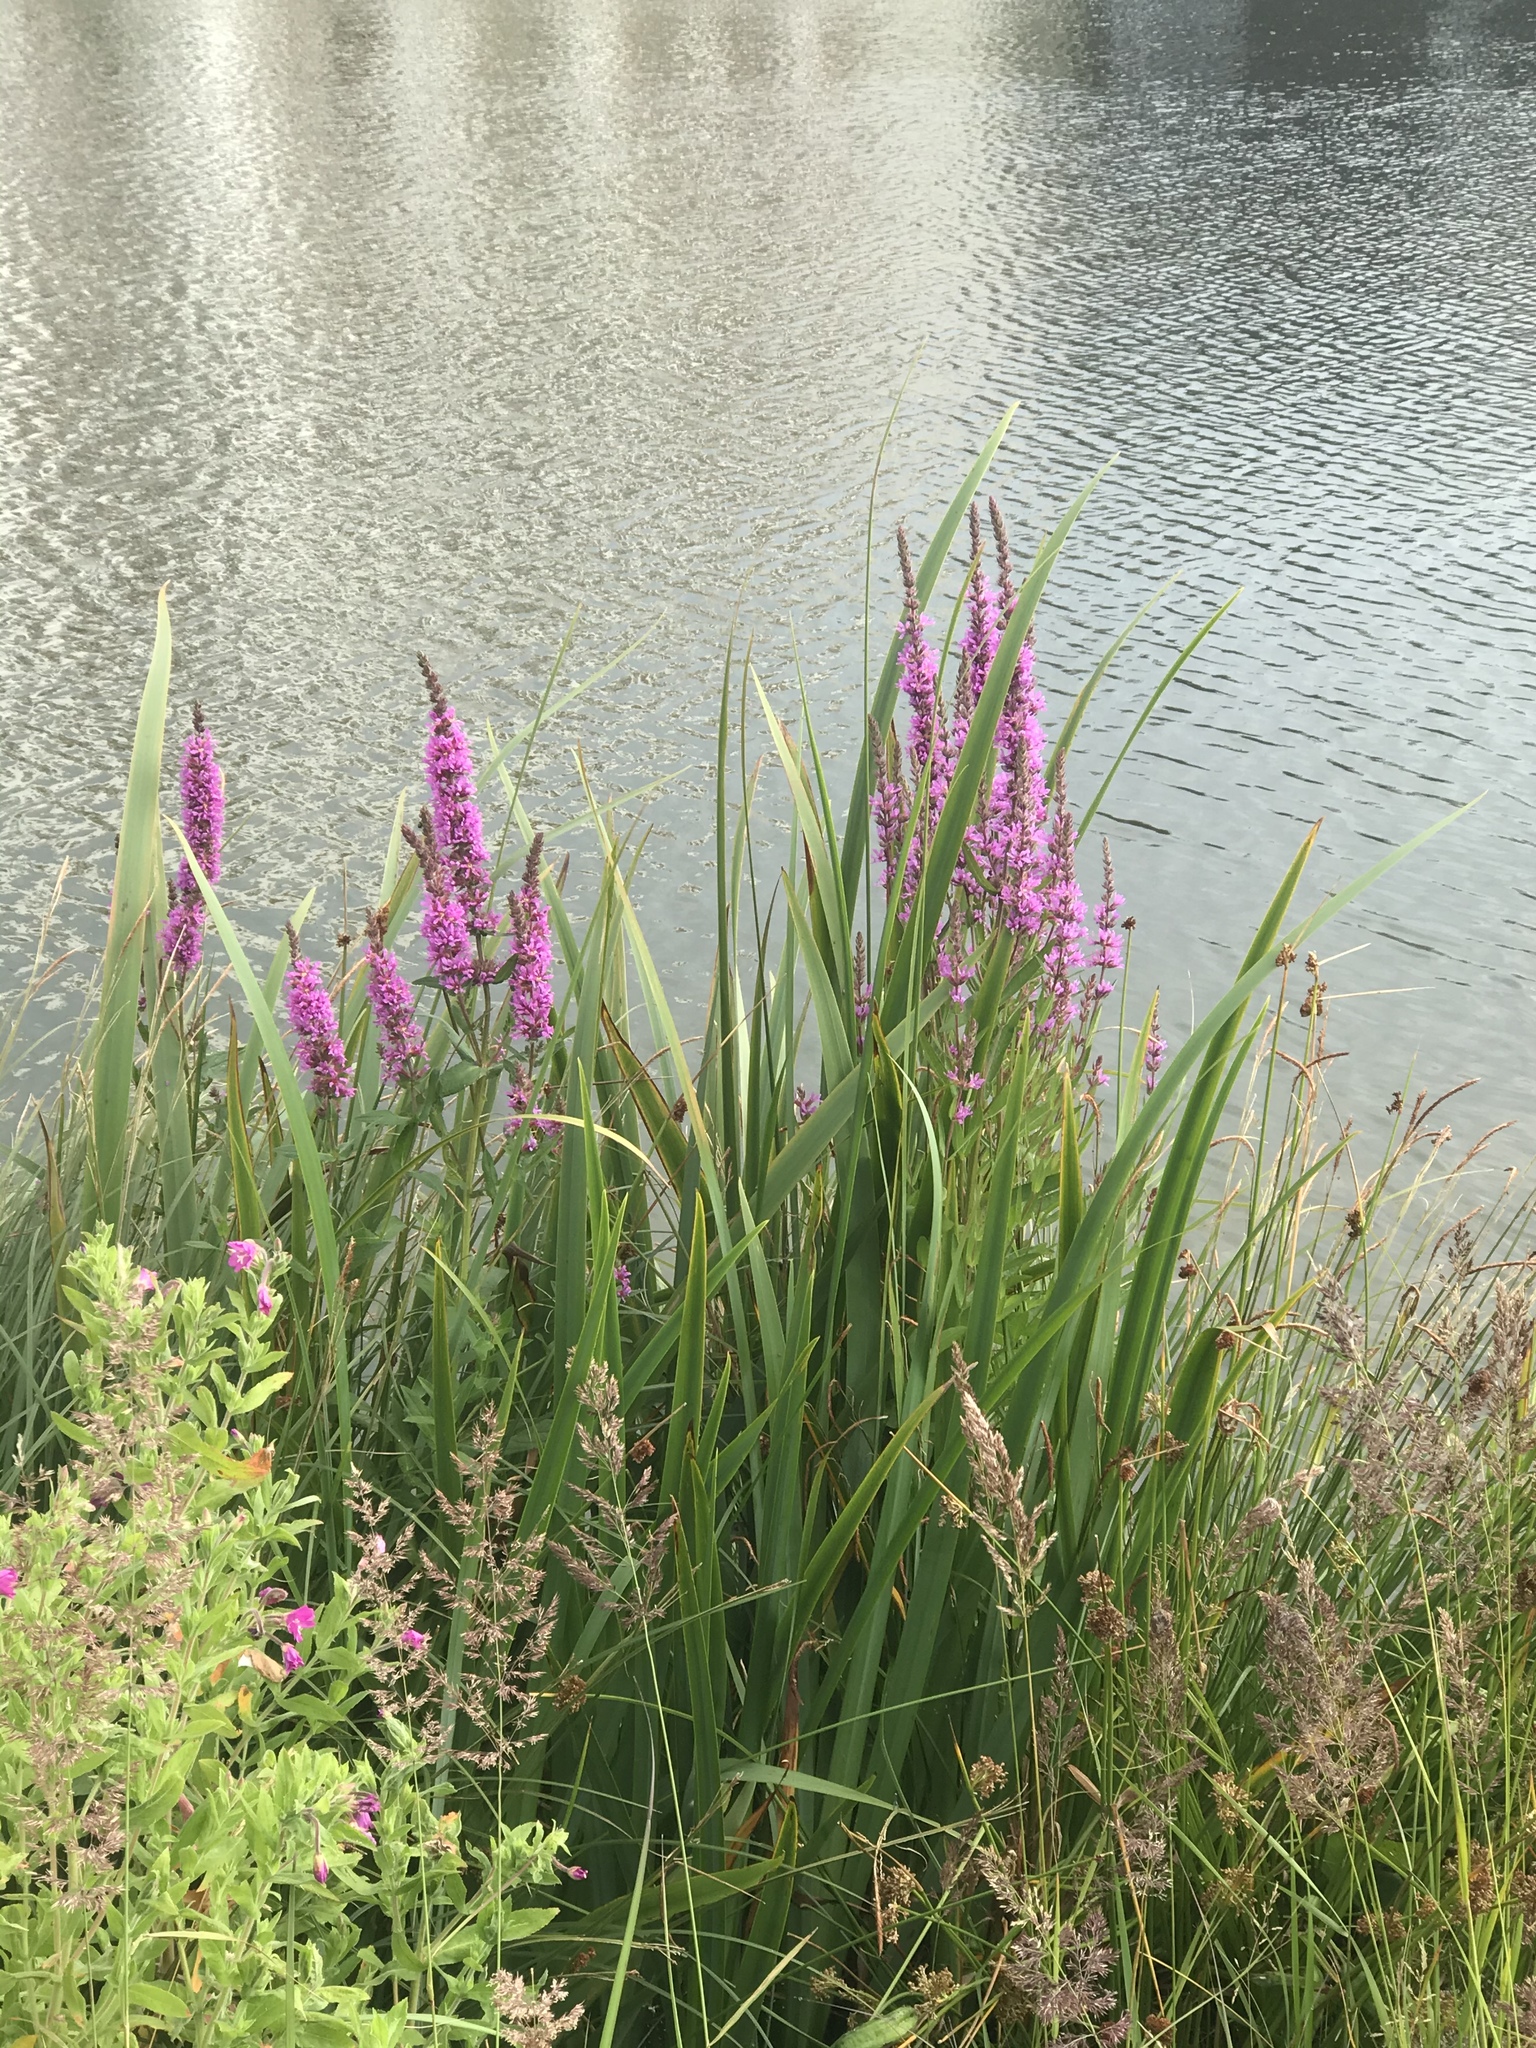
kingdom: Plantae
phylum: Tracheophyta
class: Magnoliopsida
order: Myrtales
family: Lythraceae
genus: Lythrum
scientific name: Lythrum salicaria
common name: Purple loosestrife
